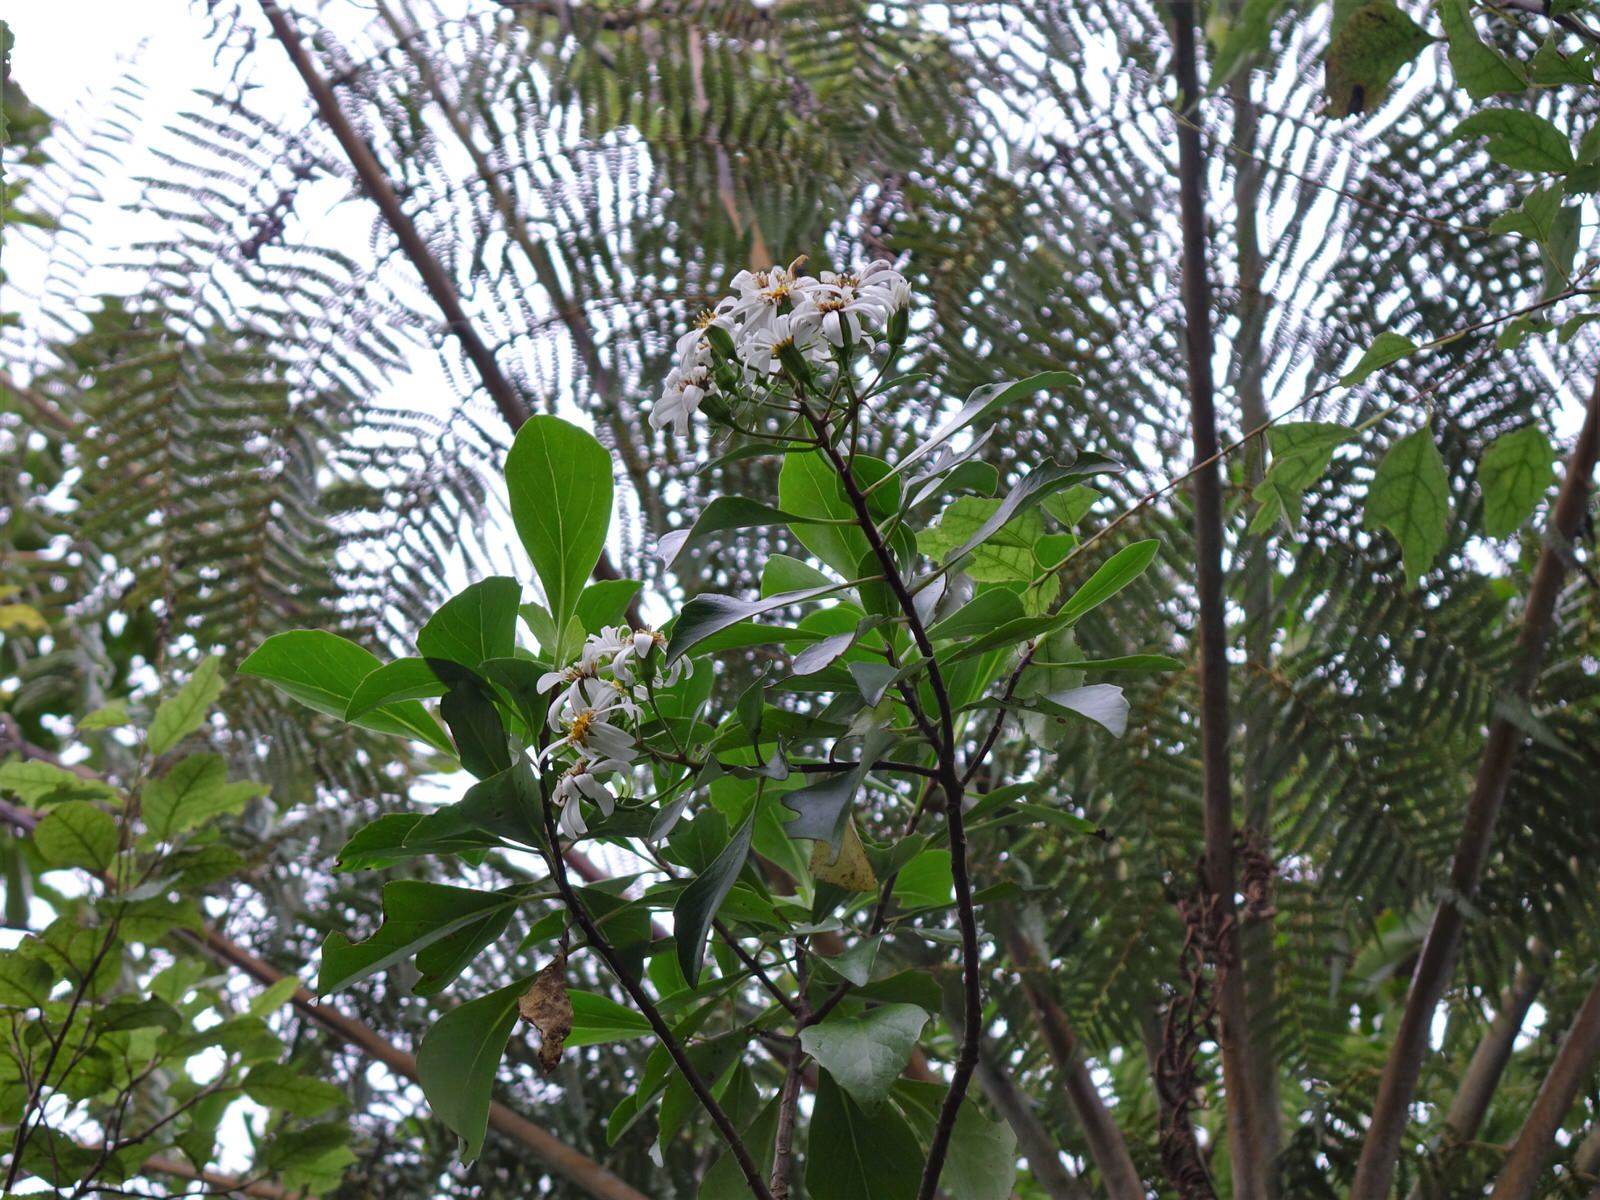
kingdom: Plantae
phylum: Tracheophyta
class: Magnoliopsida
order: Asterales
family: Asteraceae
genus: Brachyglottis
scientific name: Brachyglottis kirkii
